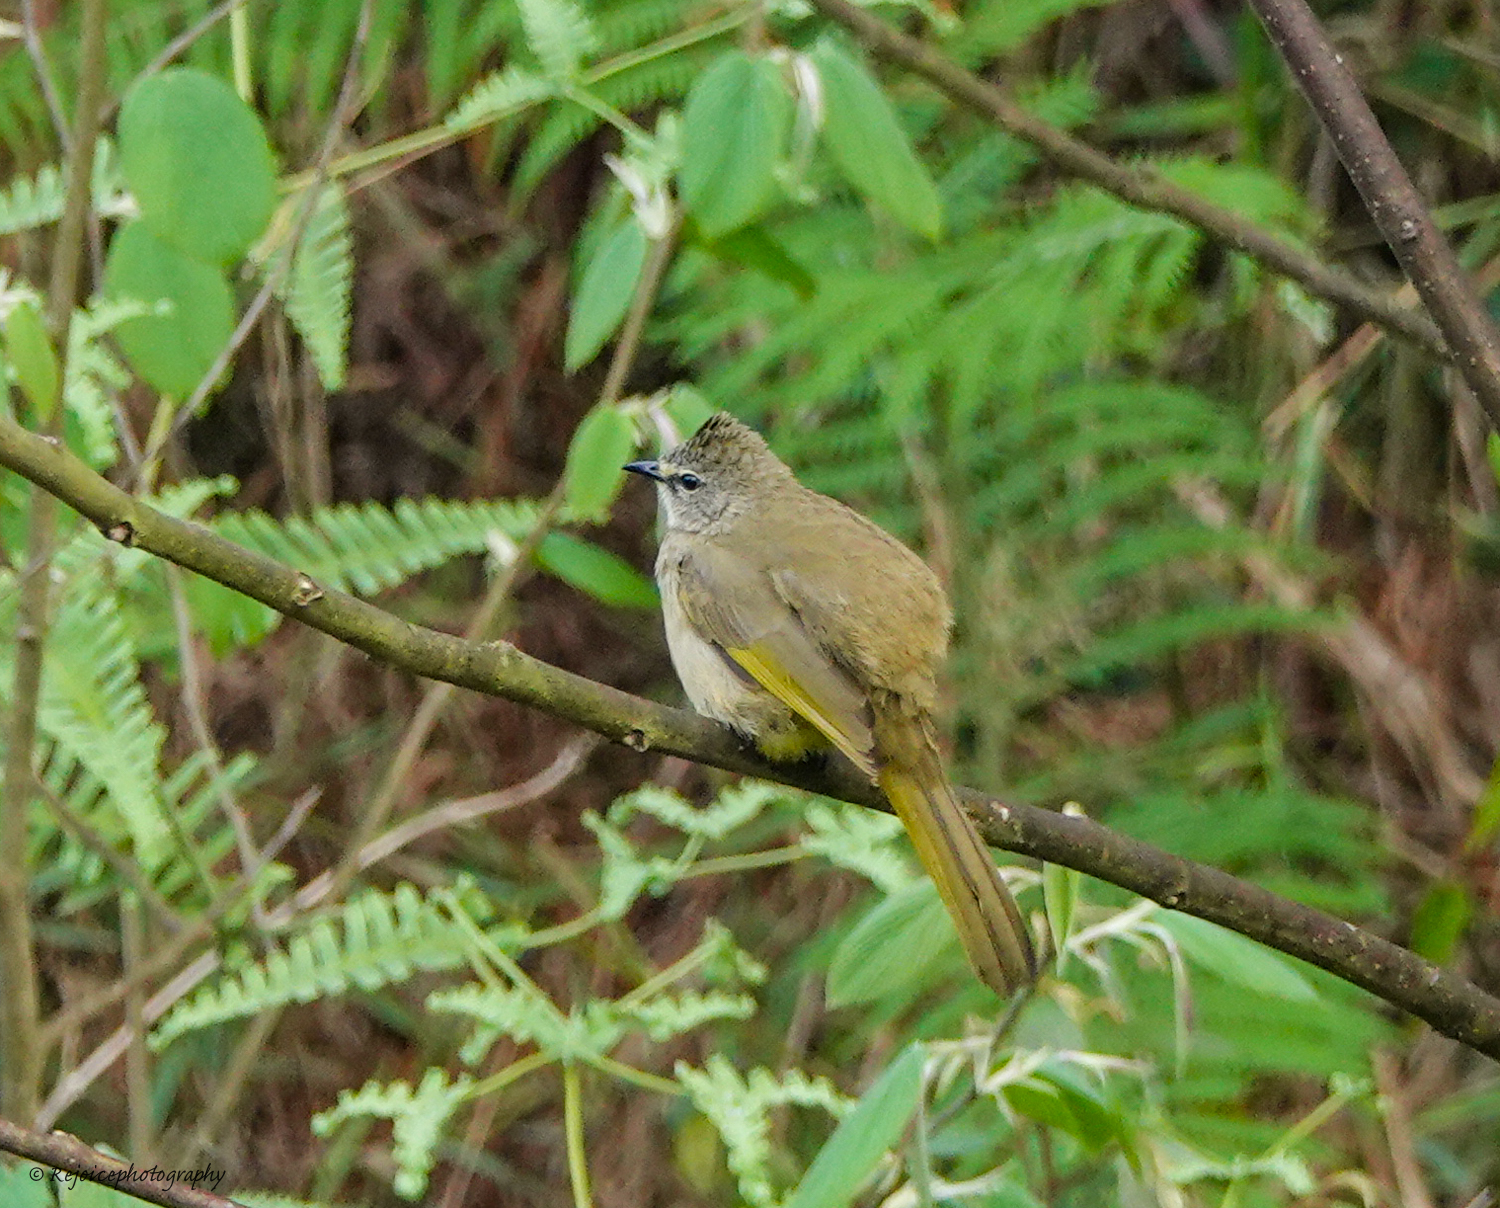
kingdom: Animalia
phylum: Chordata
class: Aves
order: Passeriformes
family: Pycnonotidae
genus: Pycnonotus
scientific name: Pycnonotus flavescens
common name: Flavescent bulbul
